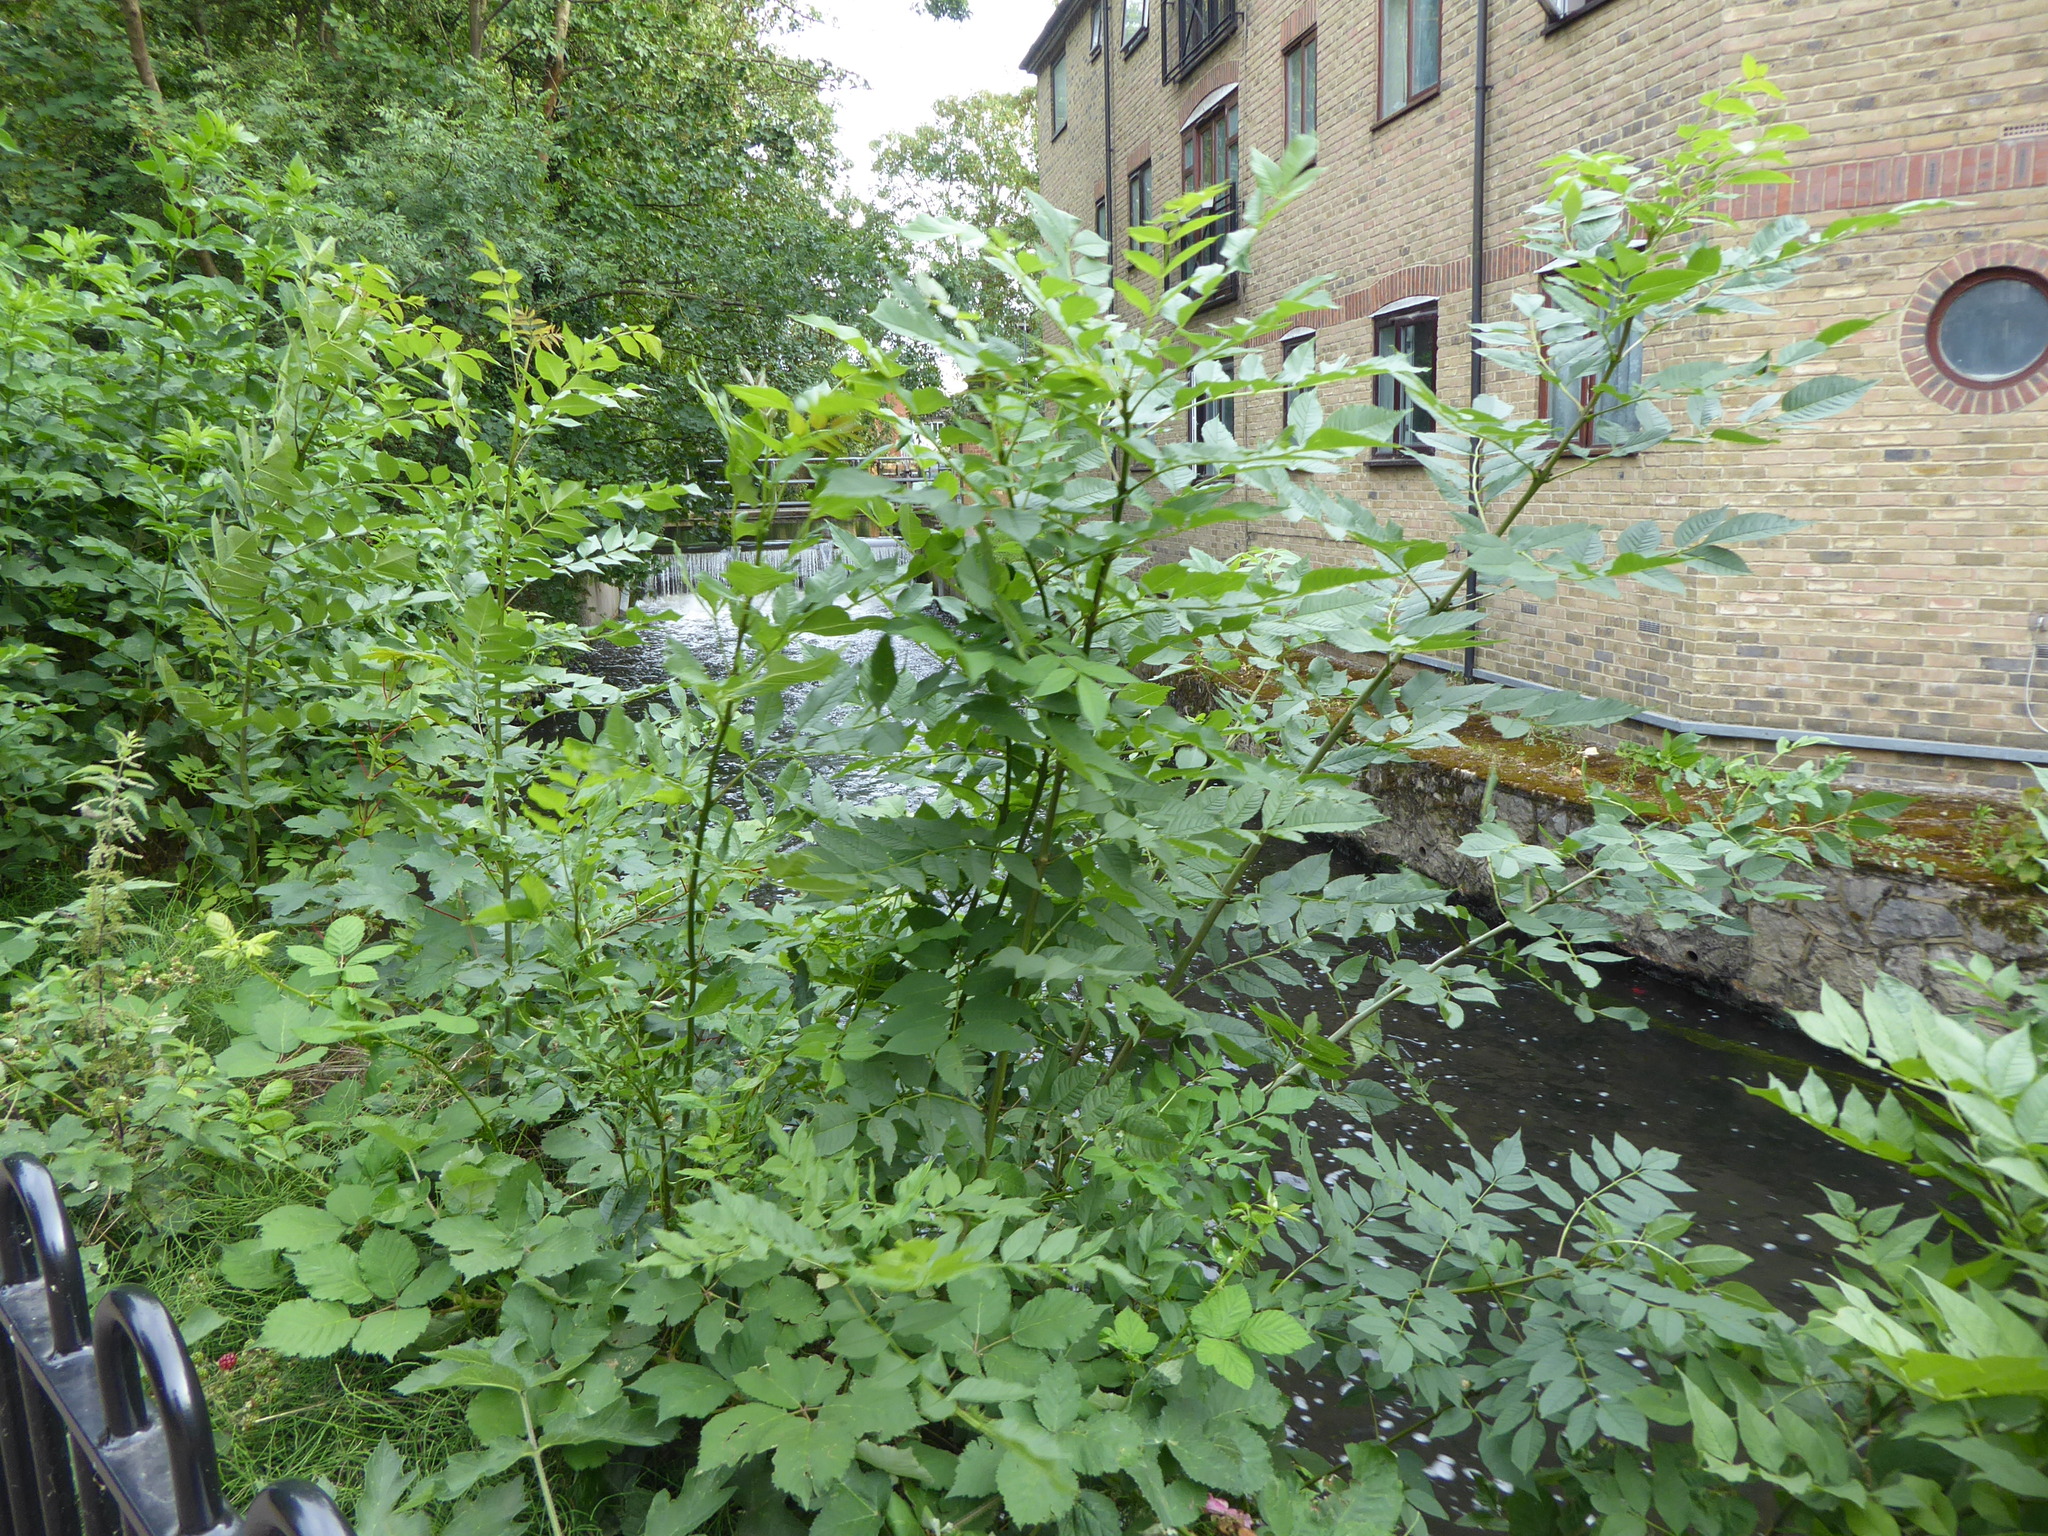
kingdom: Plantae
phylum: Tracheophyta
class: Magnoliopsida
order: Lamiales
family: Oleaceae
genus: Fraxinus
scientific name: Fraxinus excelsior
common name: European ash
